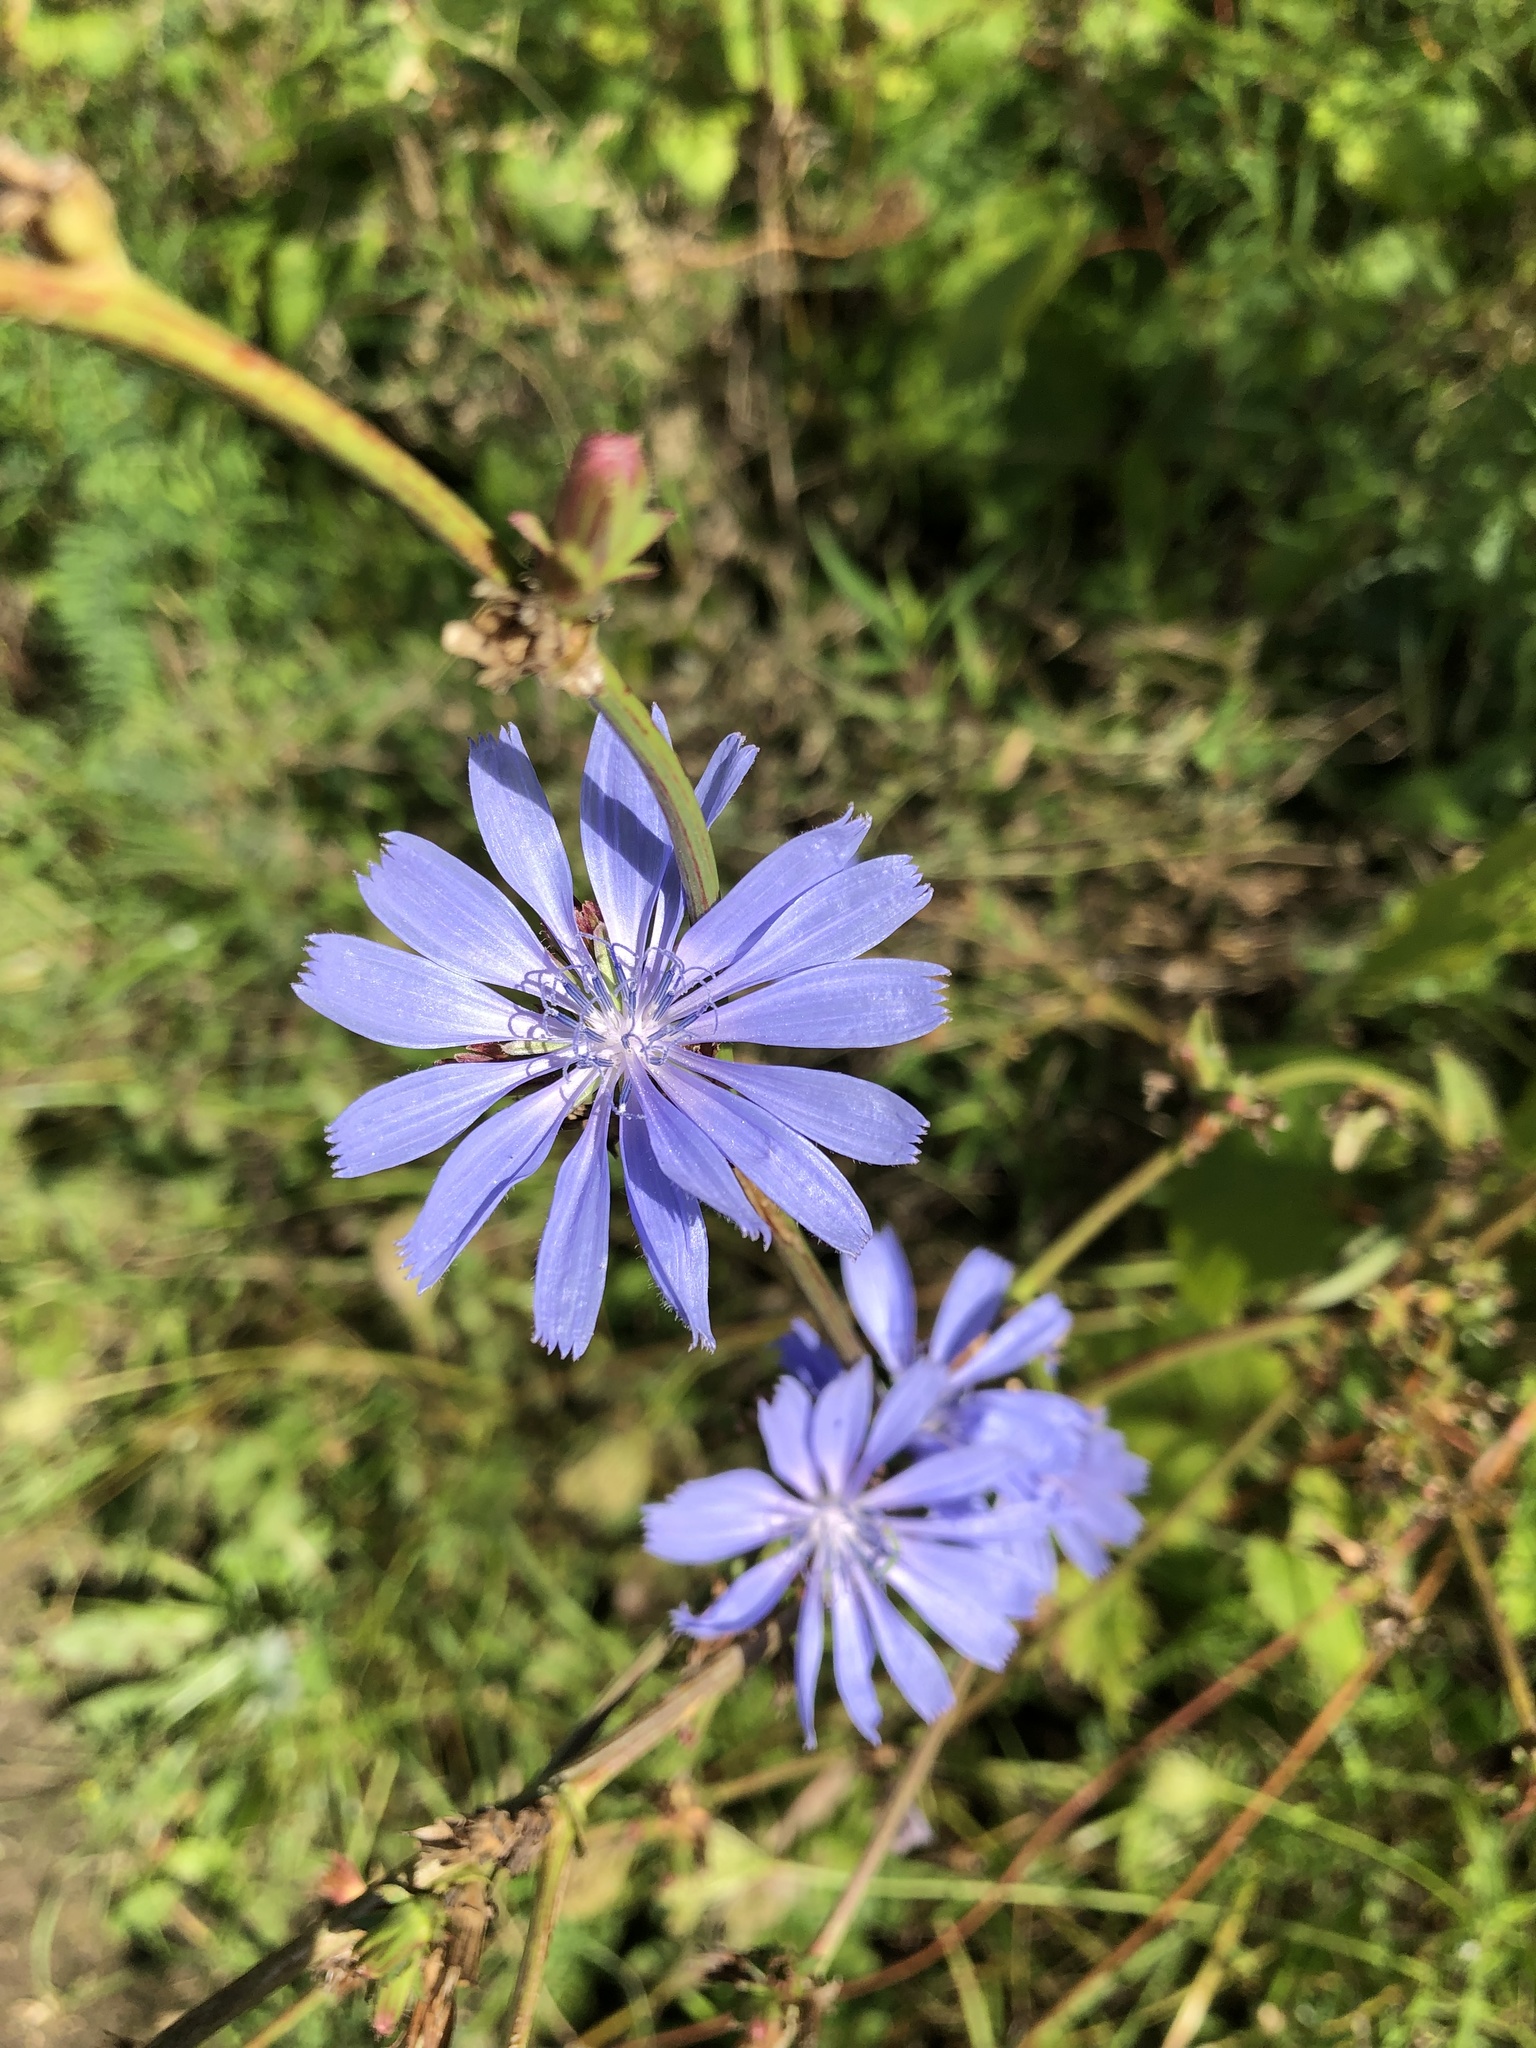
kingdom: Plantae
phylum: Tracheophyta
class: Magnoliopsida
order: Asterales
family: Asteraceae
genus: Cichorium
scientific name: Cichorium intybus
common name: Chicory
